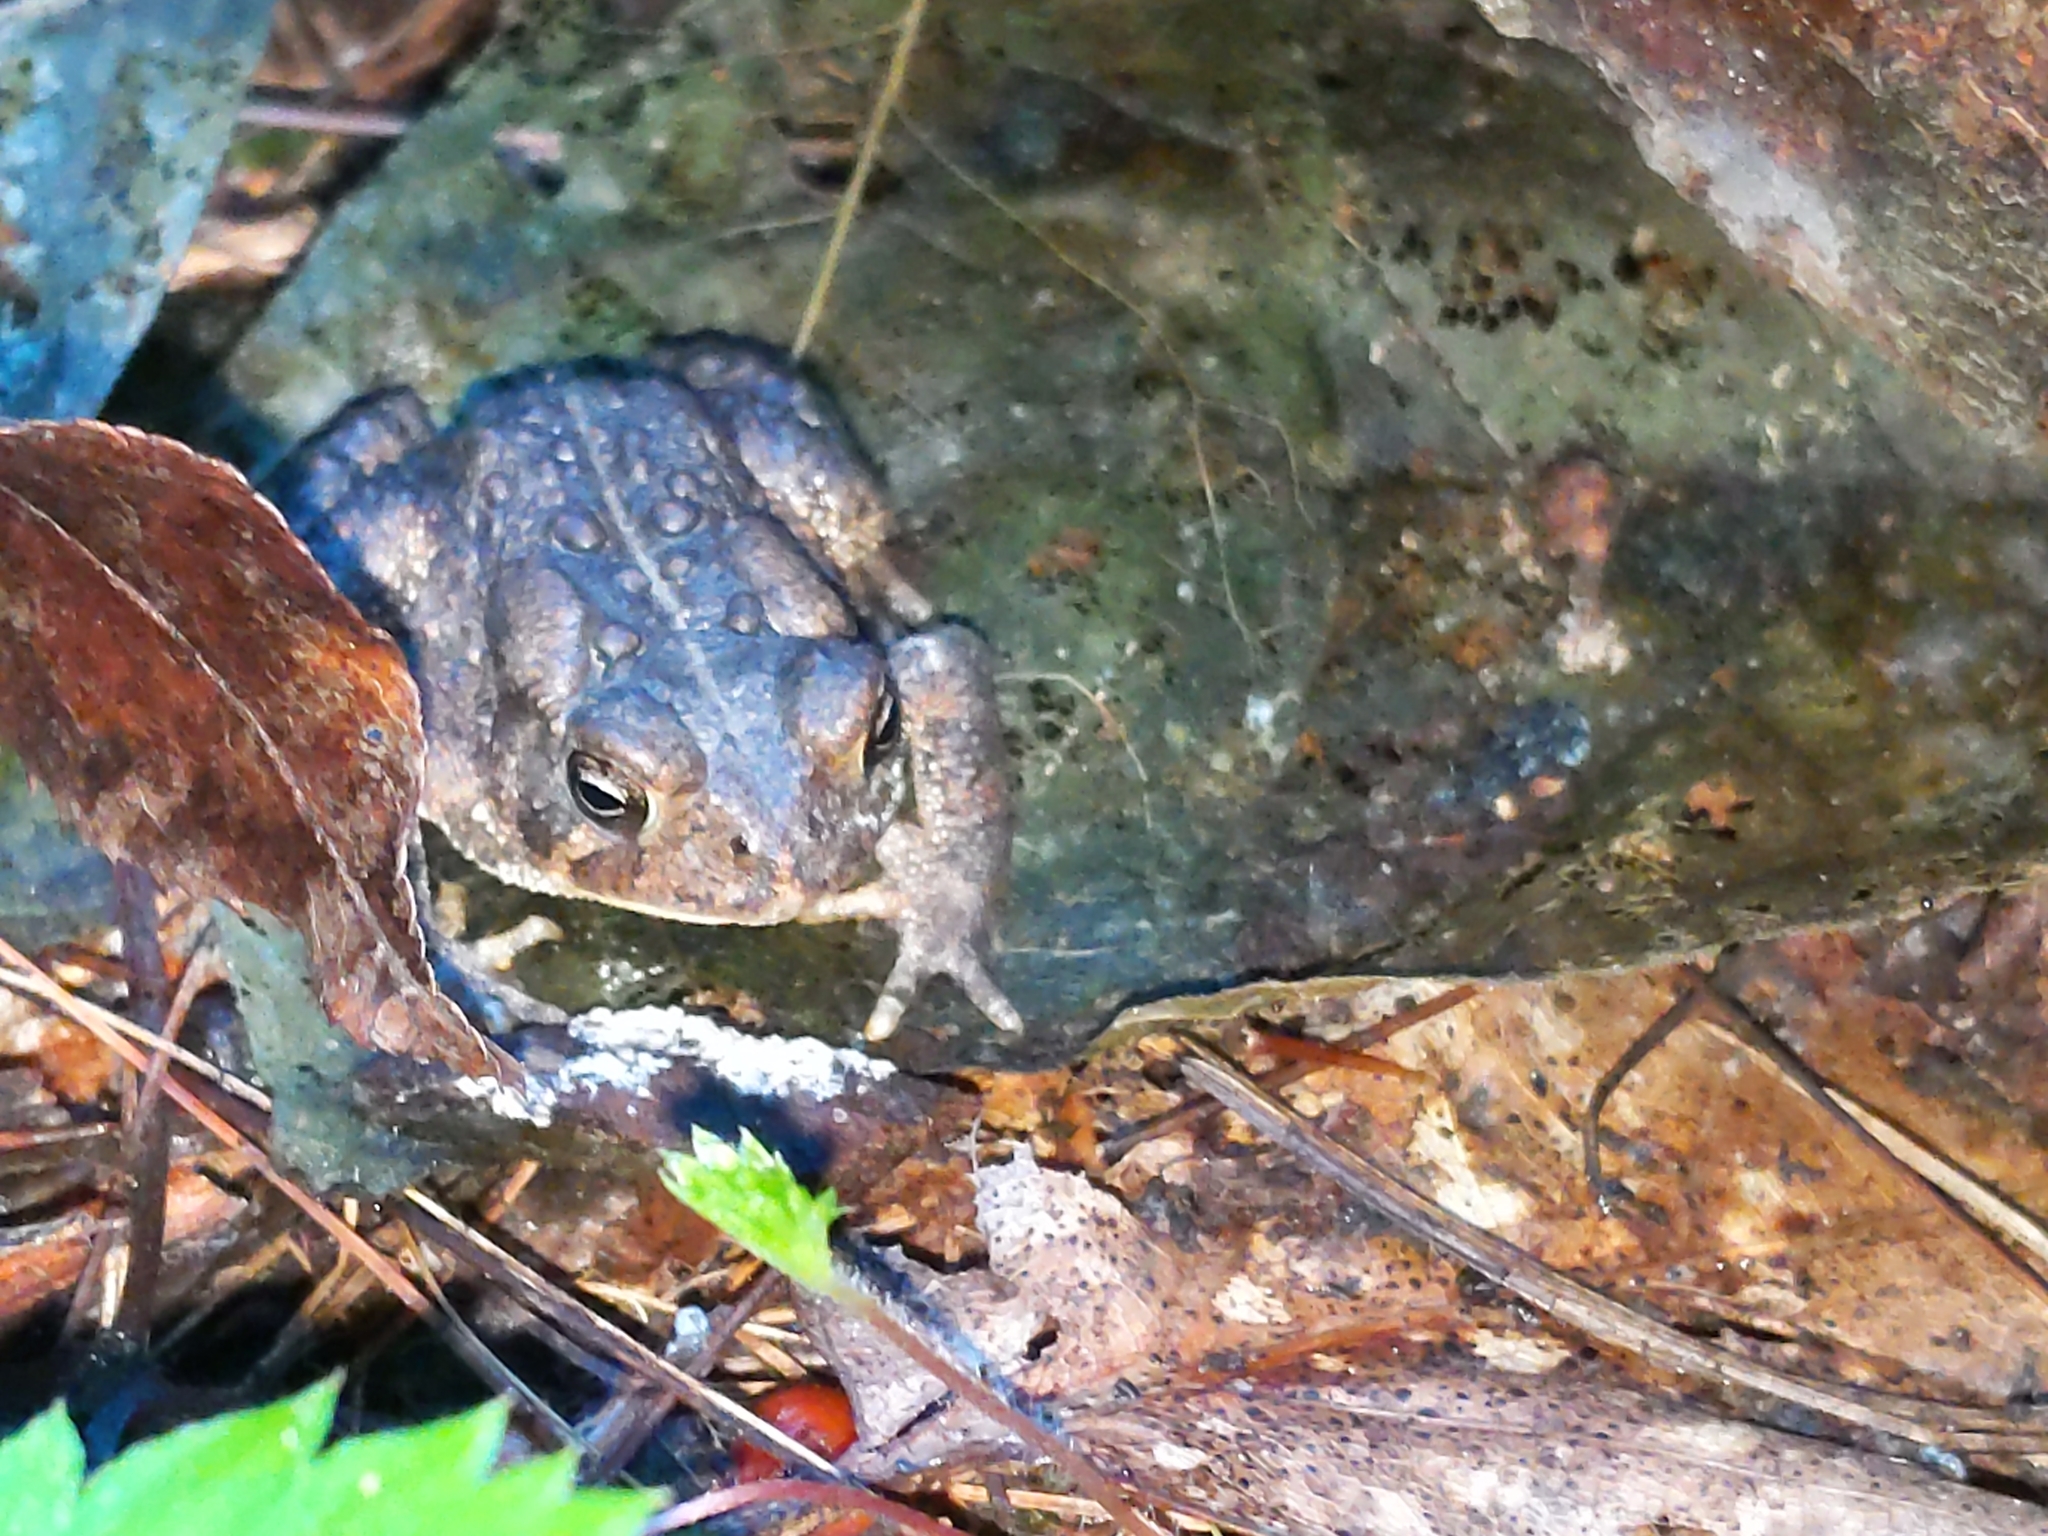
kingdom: Animalia
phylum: Chordata
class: Amphibia
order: Anura
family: Bufonidae
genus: Anaxyrus
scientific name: Anaxyrus americanus
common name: American toad
